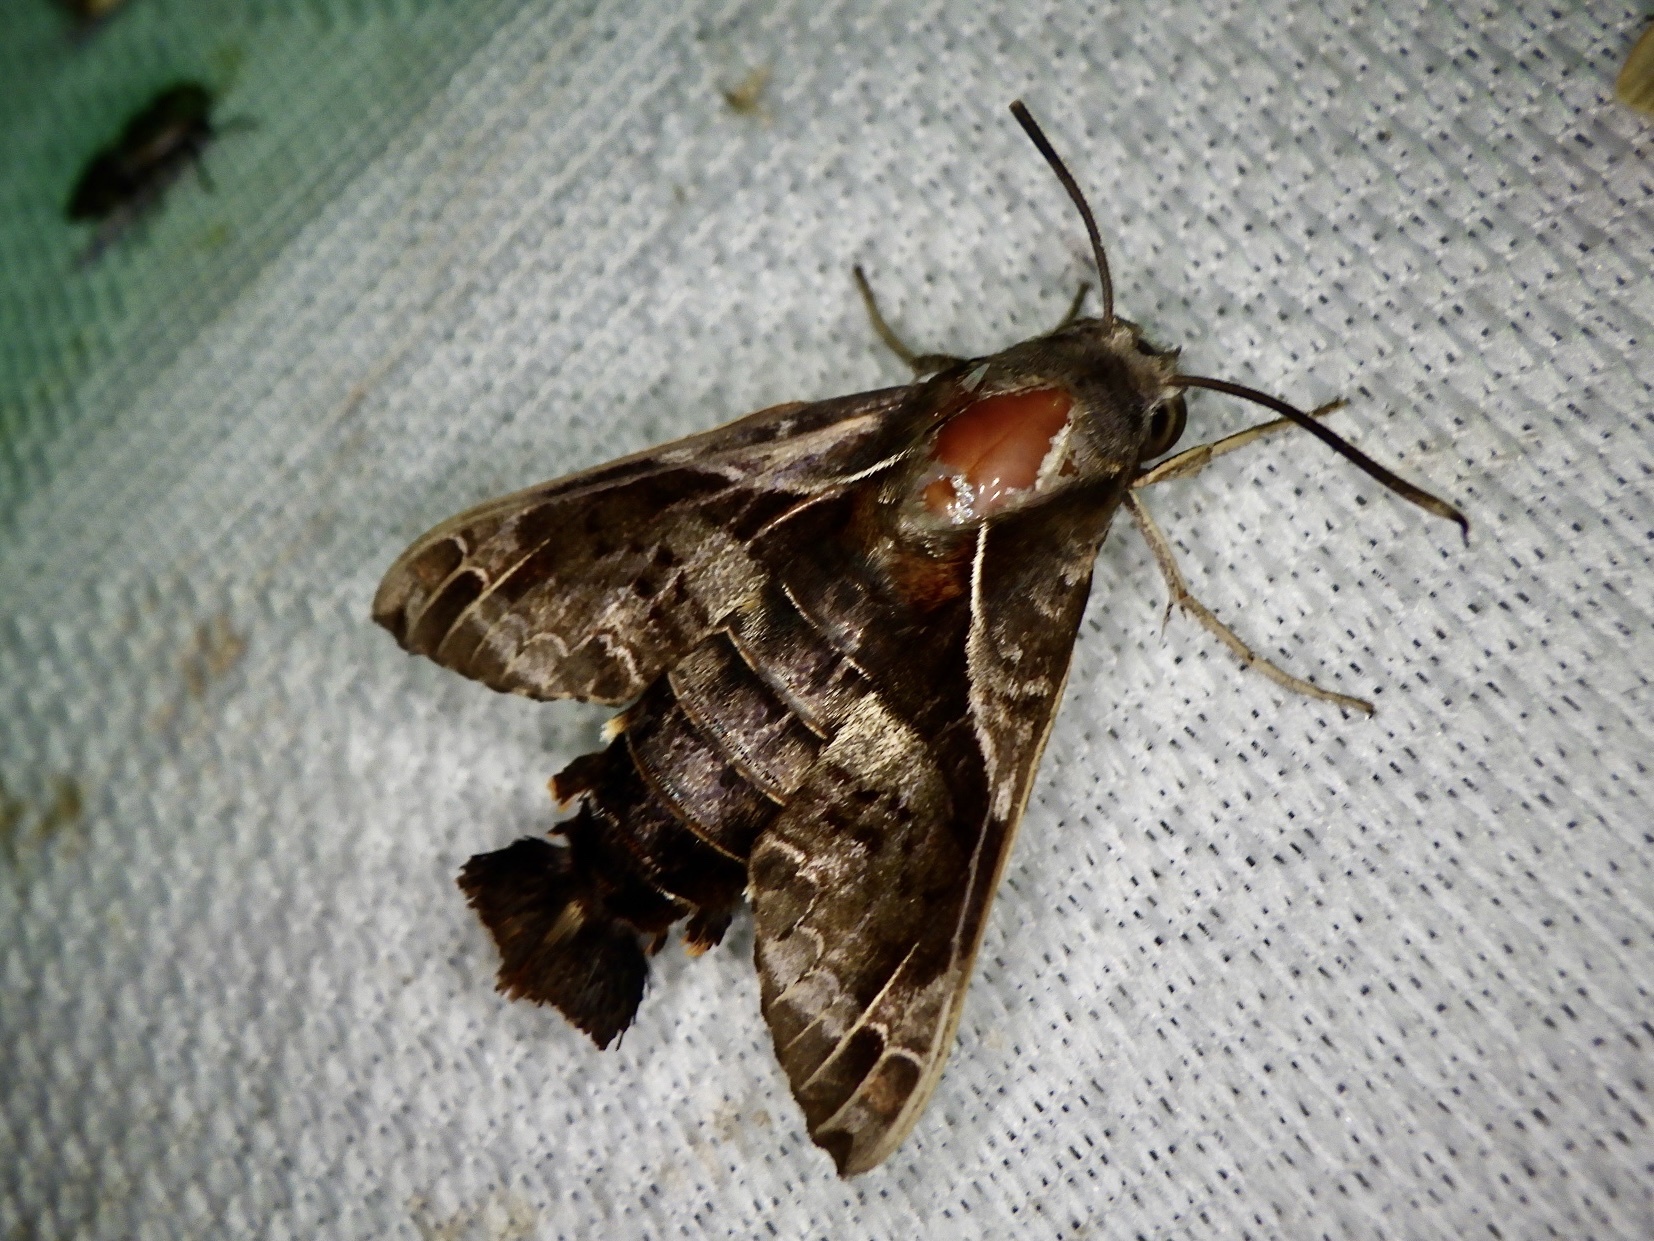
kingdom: Animalia
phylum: Arthropoda
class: Insecta
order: Lepidoptera
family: Sphingidae
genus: Macroglossum
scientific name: Macroglossum fritzei
